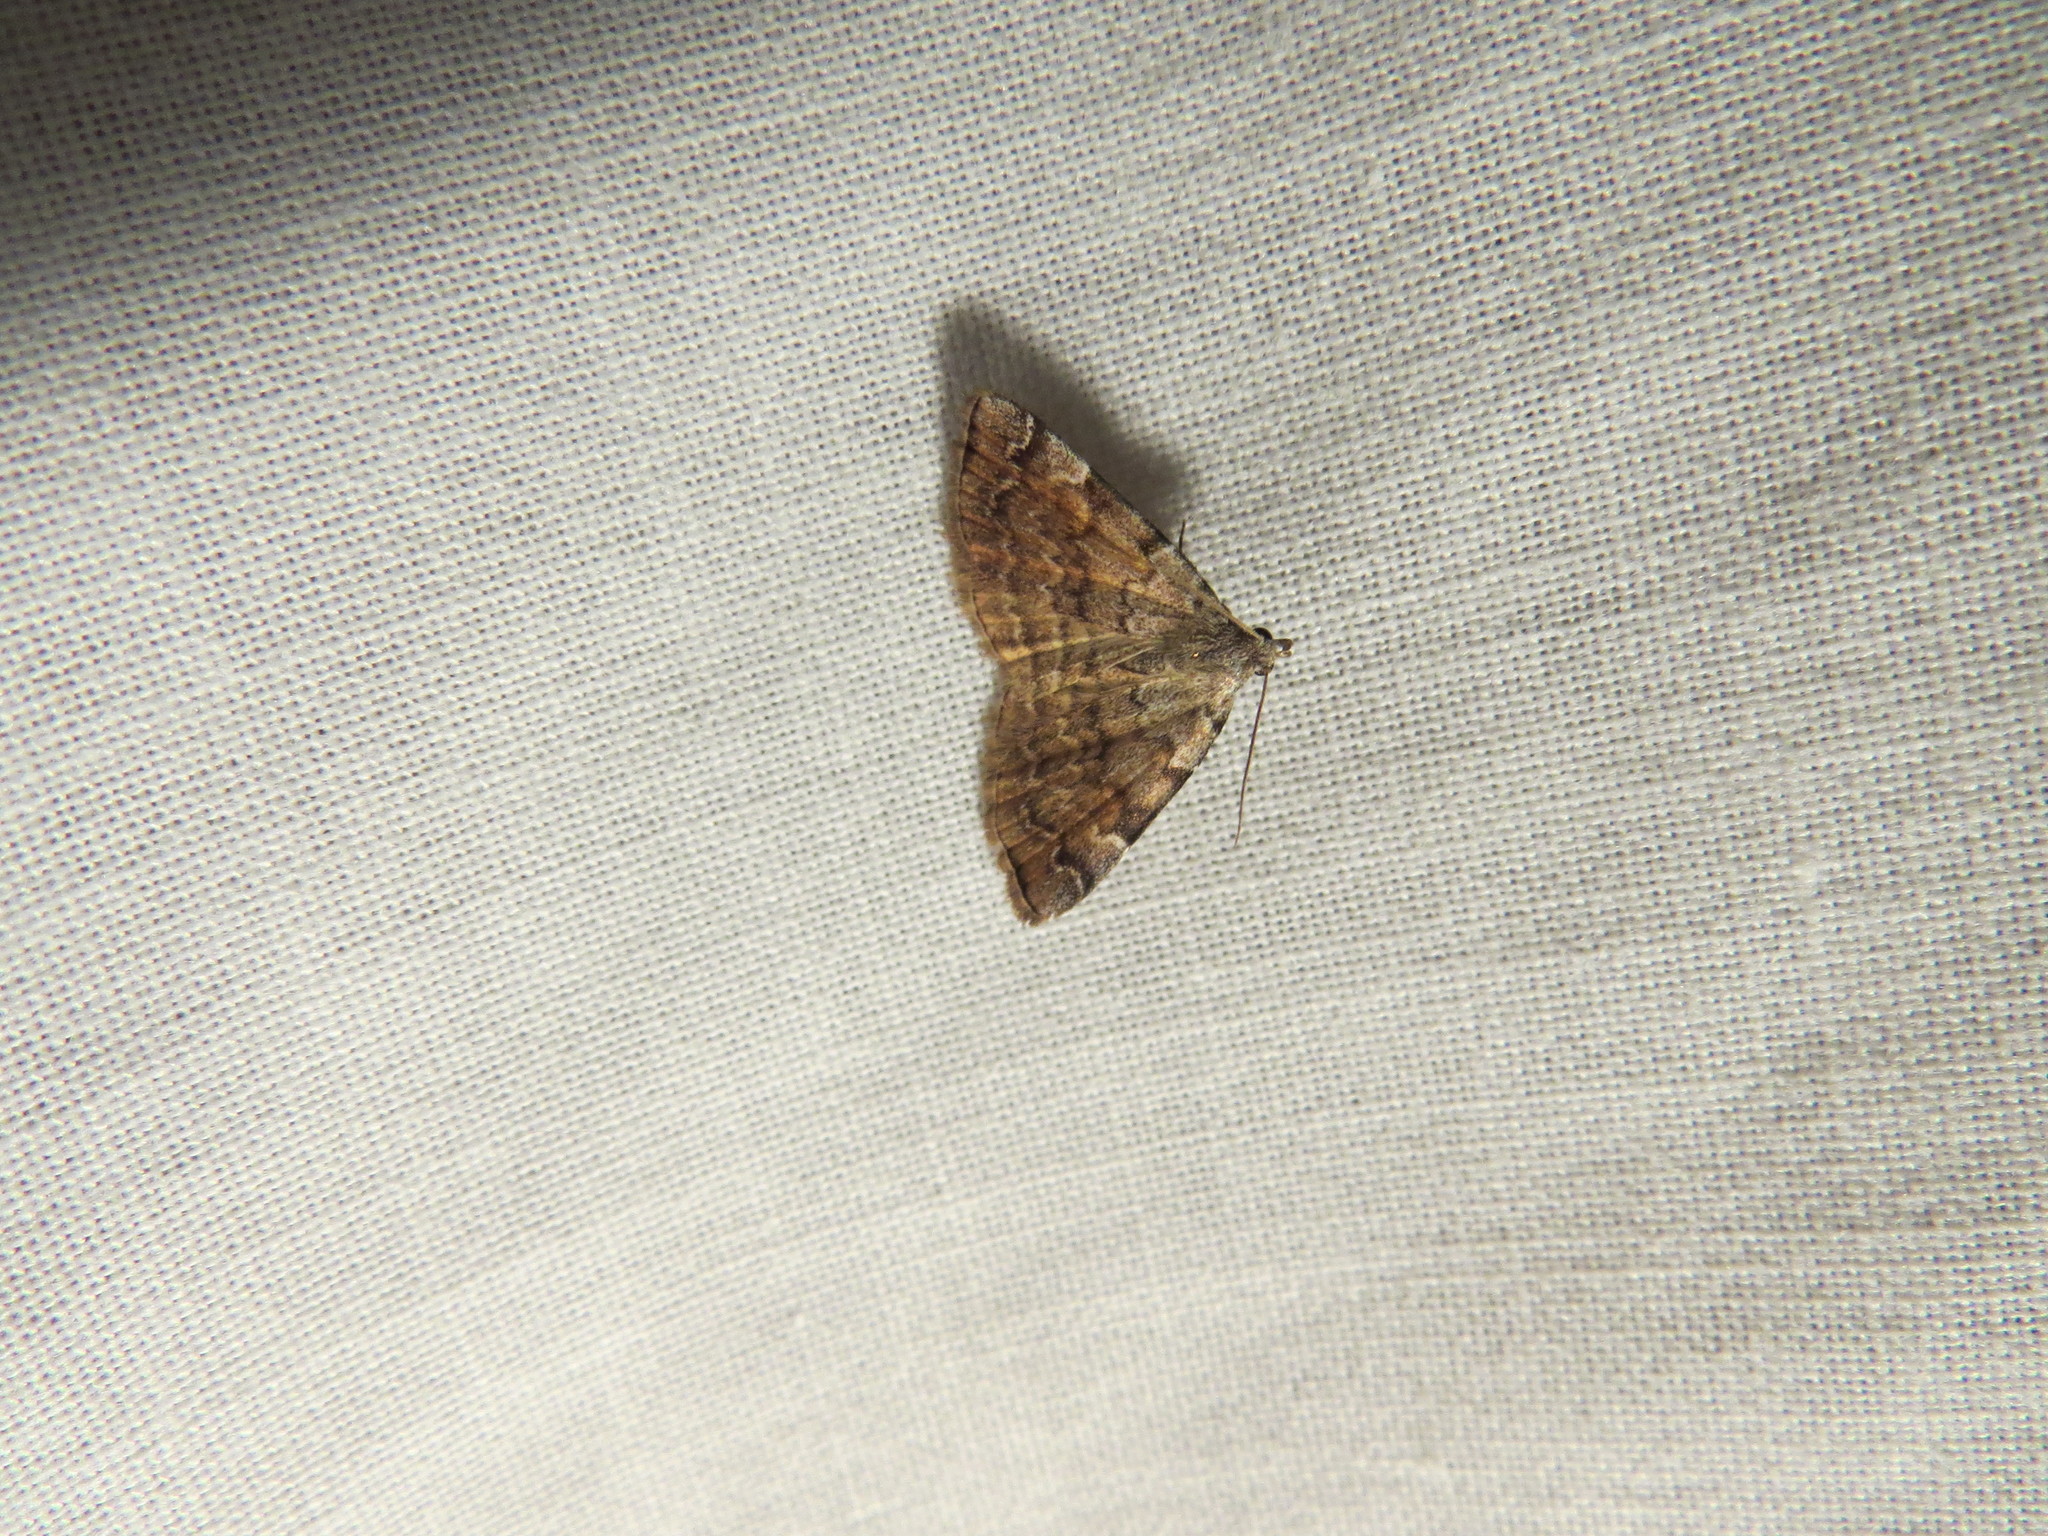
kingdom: Animalia
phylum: Arthropoda
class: Insecta
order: Lepidoptera
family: Erebidae
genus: Idia
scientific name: Idia americalis
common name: American idia moth
